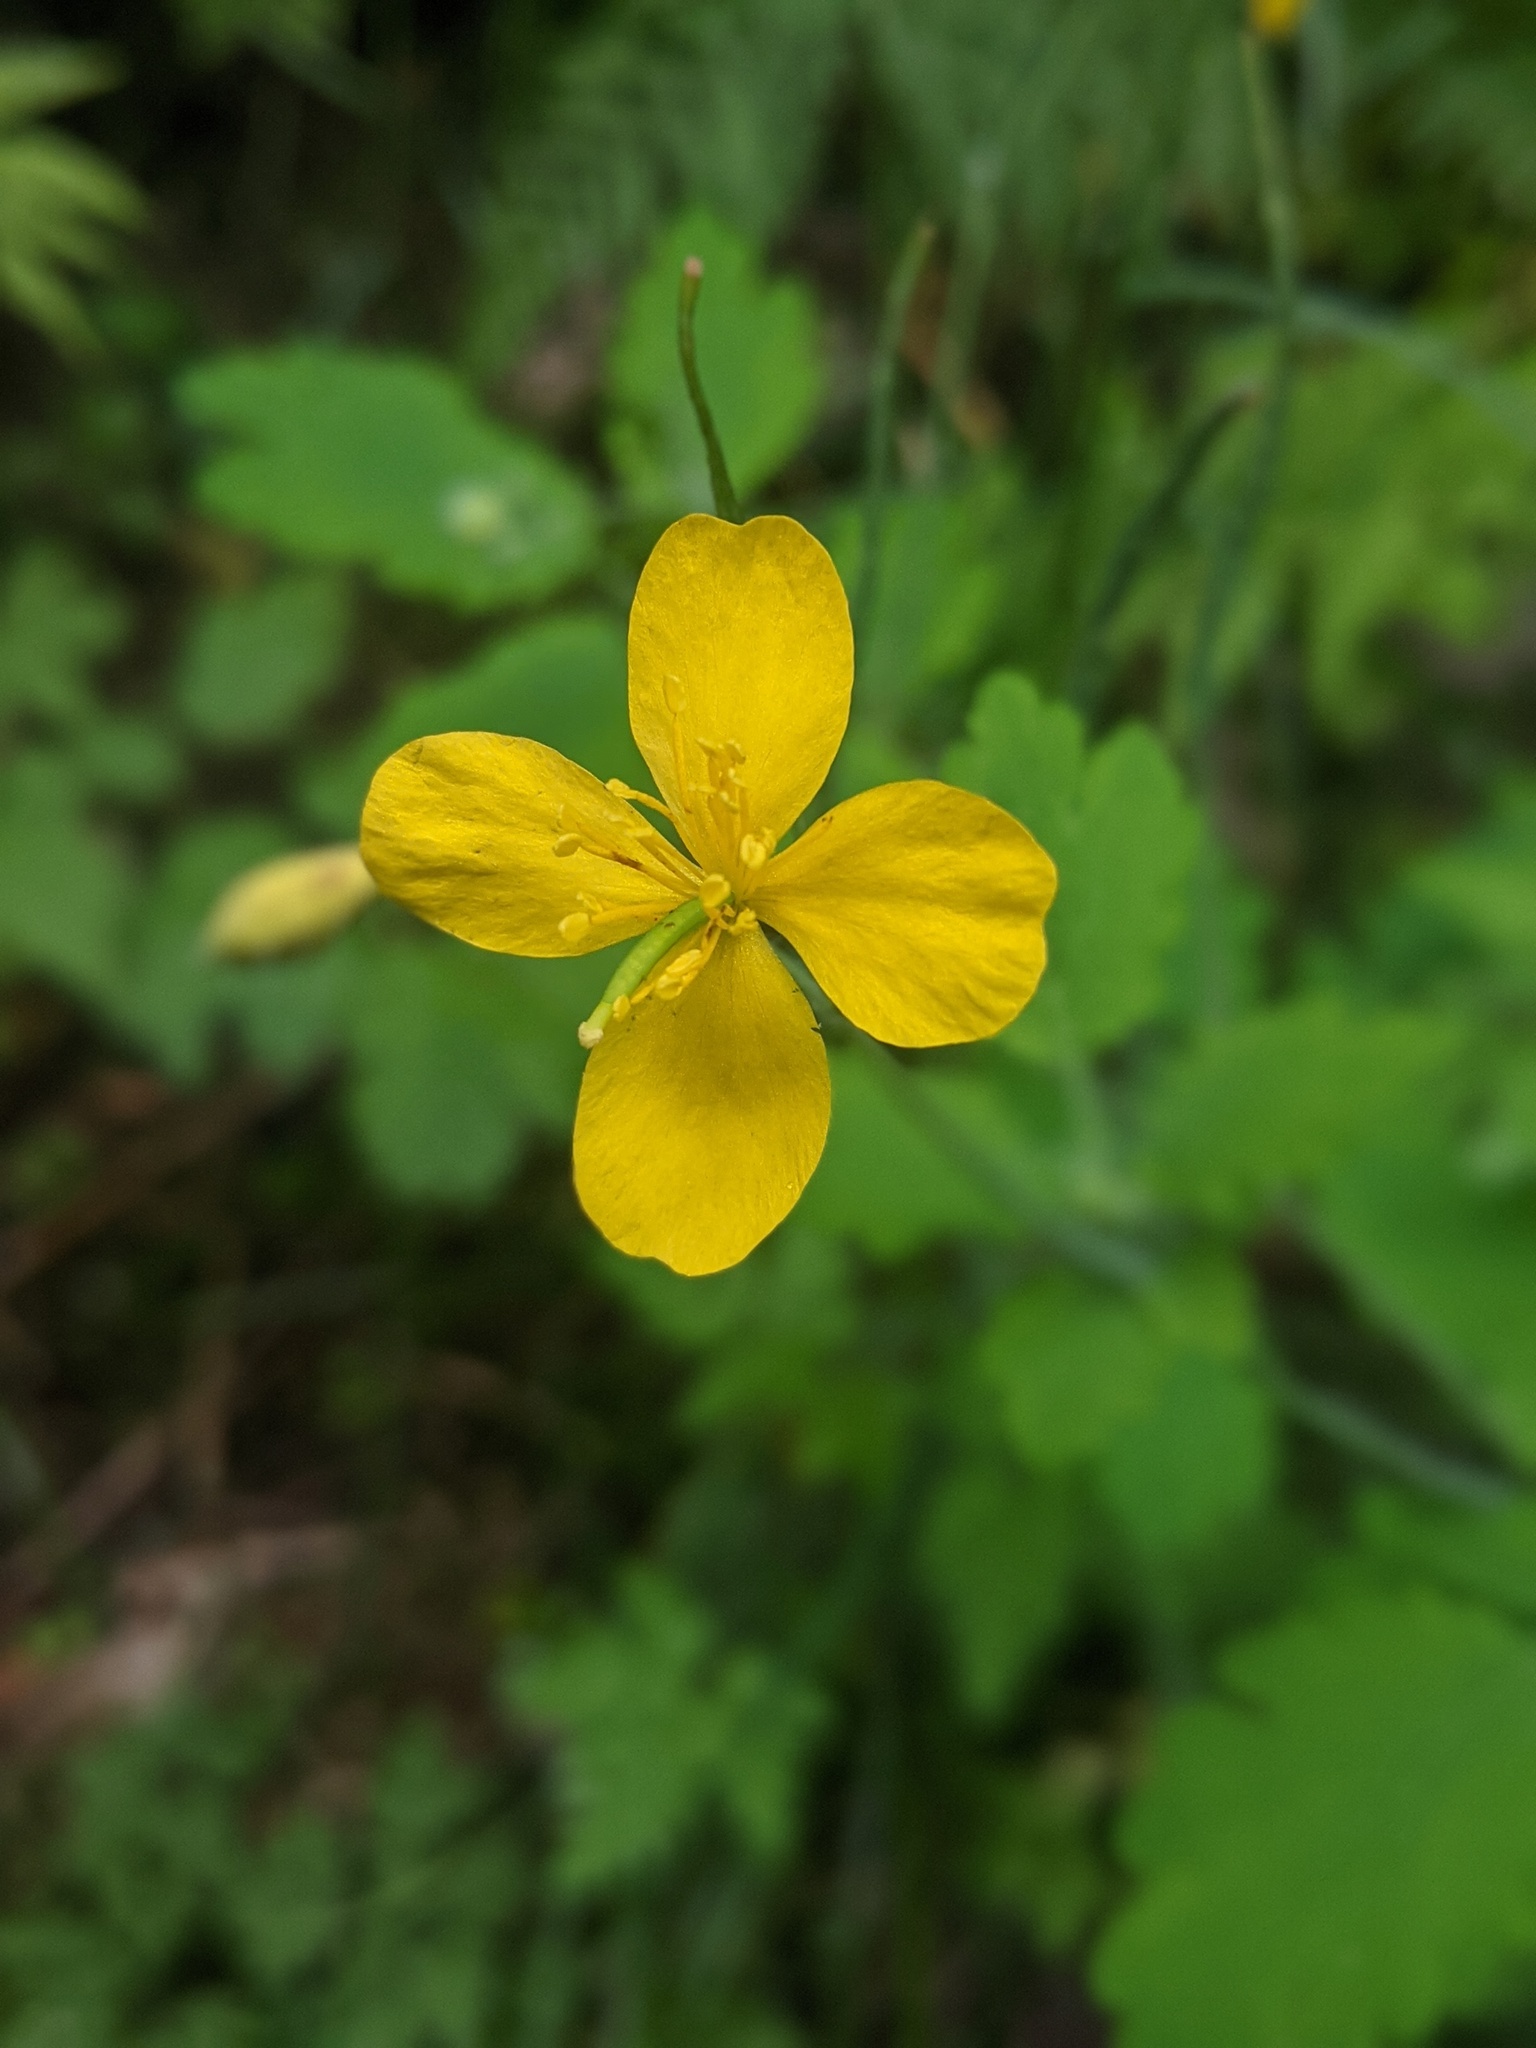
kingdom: Plantae
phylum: Tracheophyta
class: Magnoliopsida
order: Ranunculales
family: Papaveraceae
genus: Chelidonium
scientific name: Chelidonium majus
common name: Greater celandine
